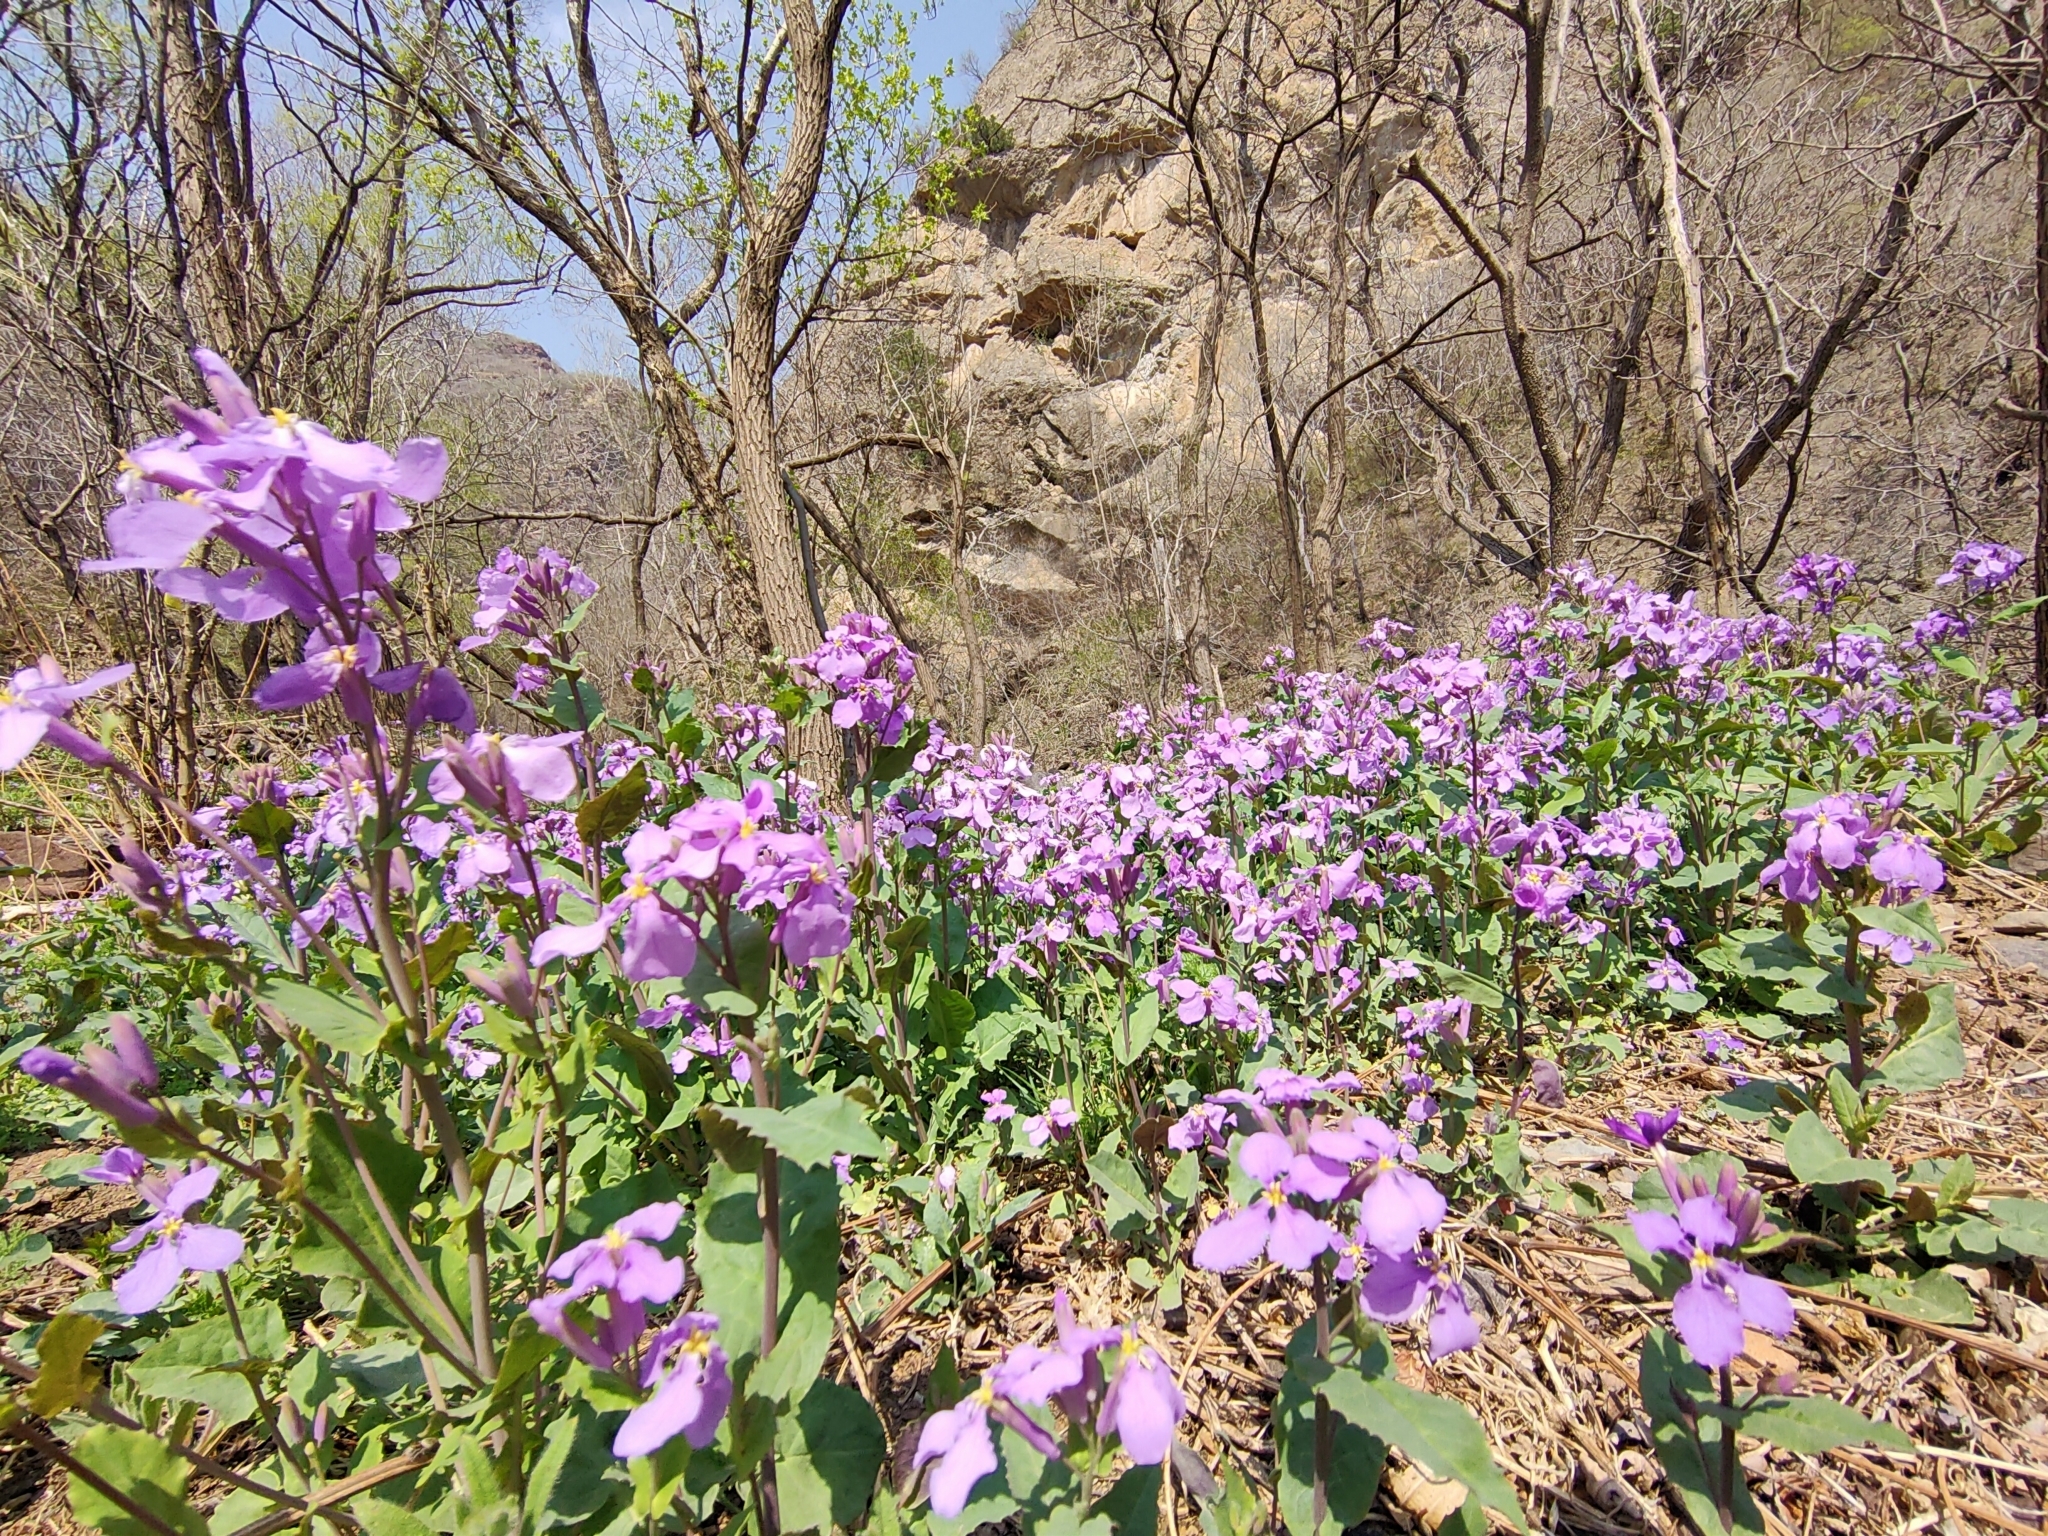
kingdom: Plantae
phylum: Tracheophyta
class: Magnoliopsida
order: Brassicales
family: Brassicaceae
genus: Orychophragmus
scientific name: Orychophragmus violaceus
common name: Mustard
